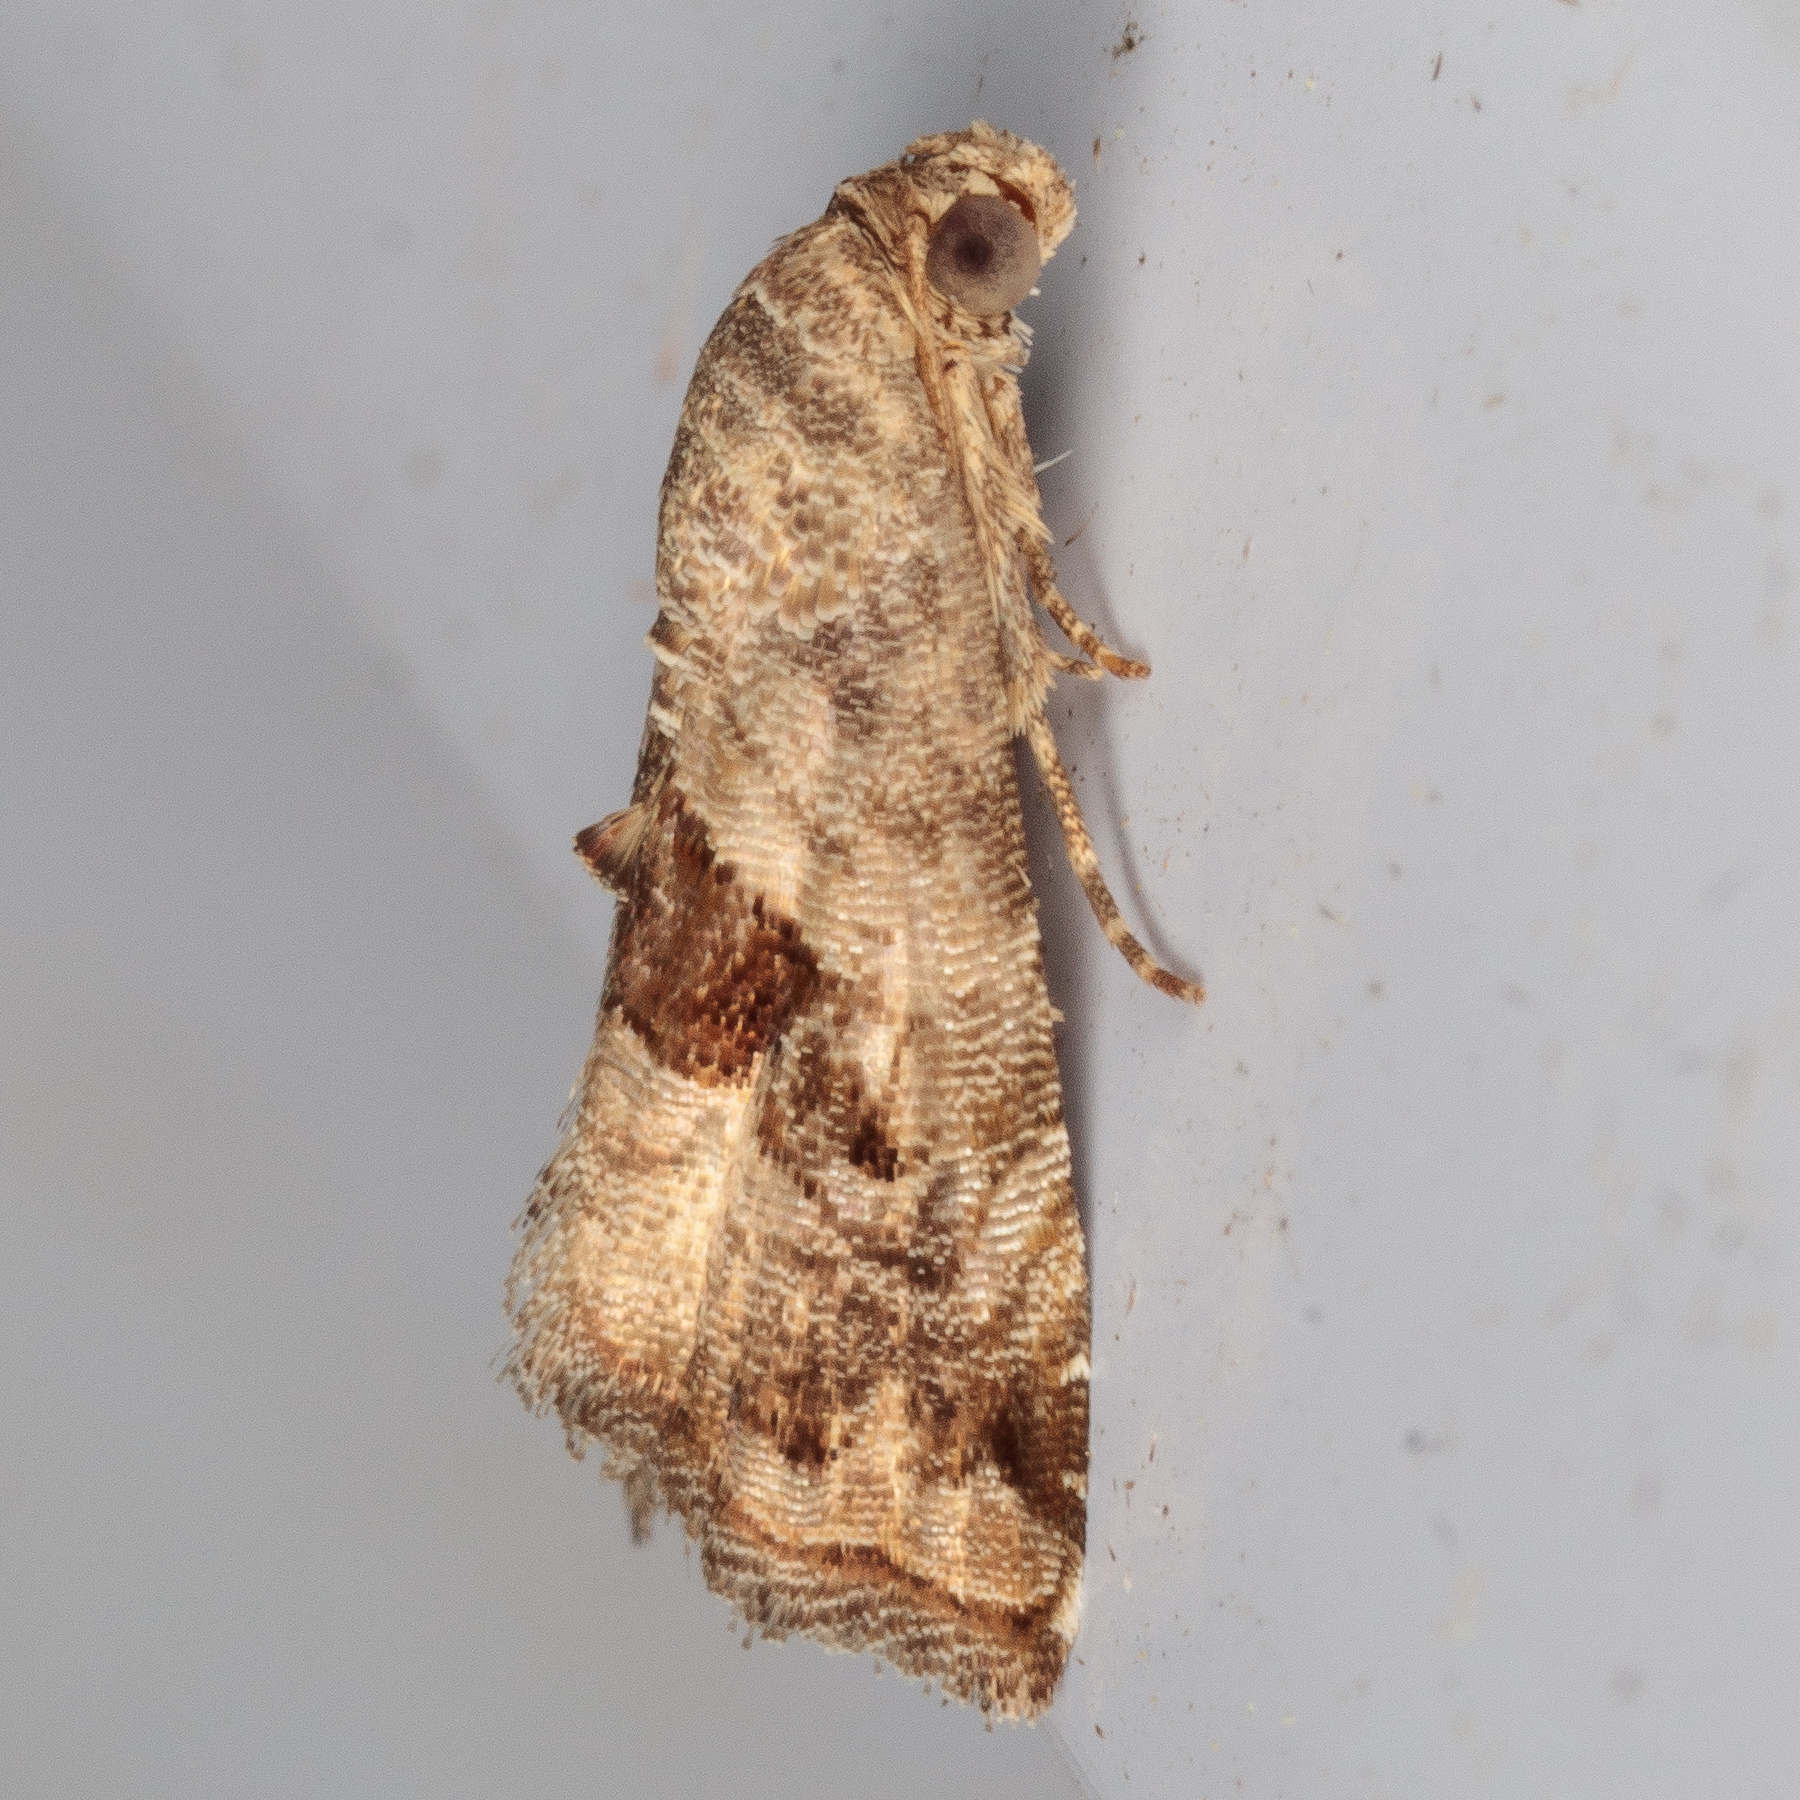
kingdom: Animalia
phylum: Arthropoda
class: Insecta
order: Lepidoptera
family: Noctuidae
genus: Tripudia
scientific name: Tripudia quadrifera
